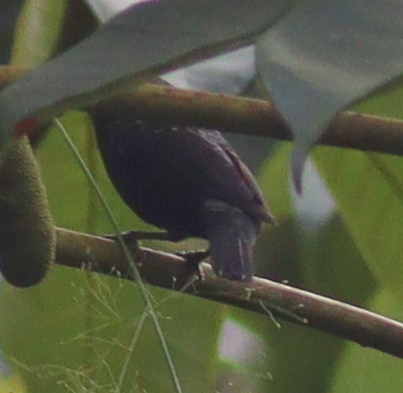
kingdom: Animalia
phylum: Chordata
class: Aves
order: Passeriformes
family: Estrildidae
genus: Nigrita
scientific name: Nigrita canicapillus
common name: Grey-headed nigrita
